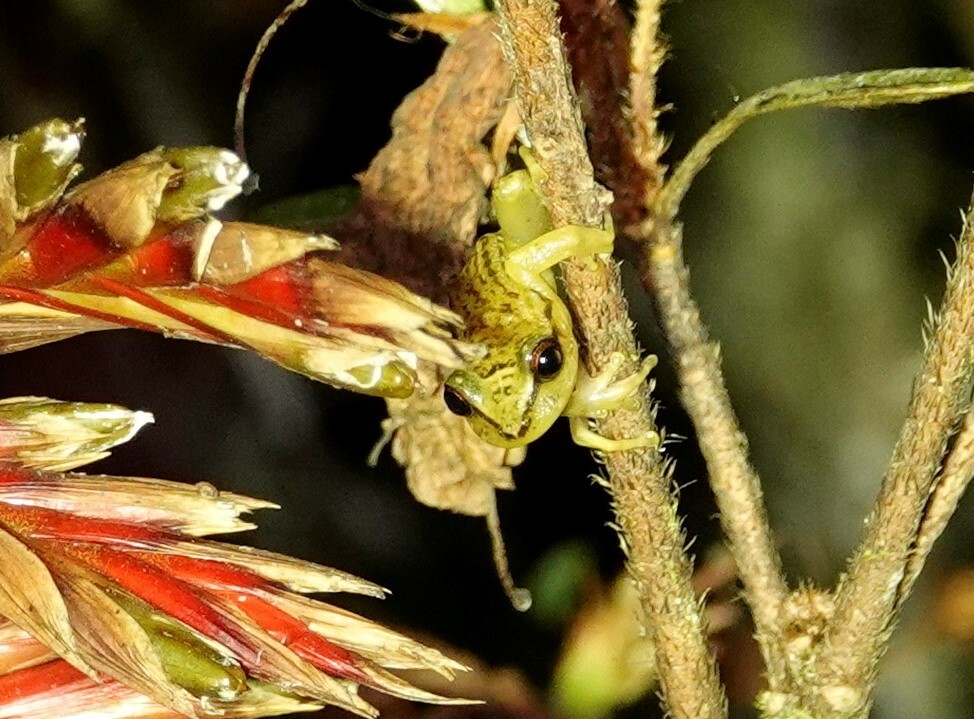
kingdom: Animalia
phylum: Chordata
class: Amphibia
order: Anura
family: Craugastoridae
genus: Tachiramantis
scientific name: Tachiramantis
